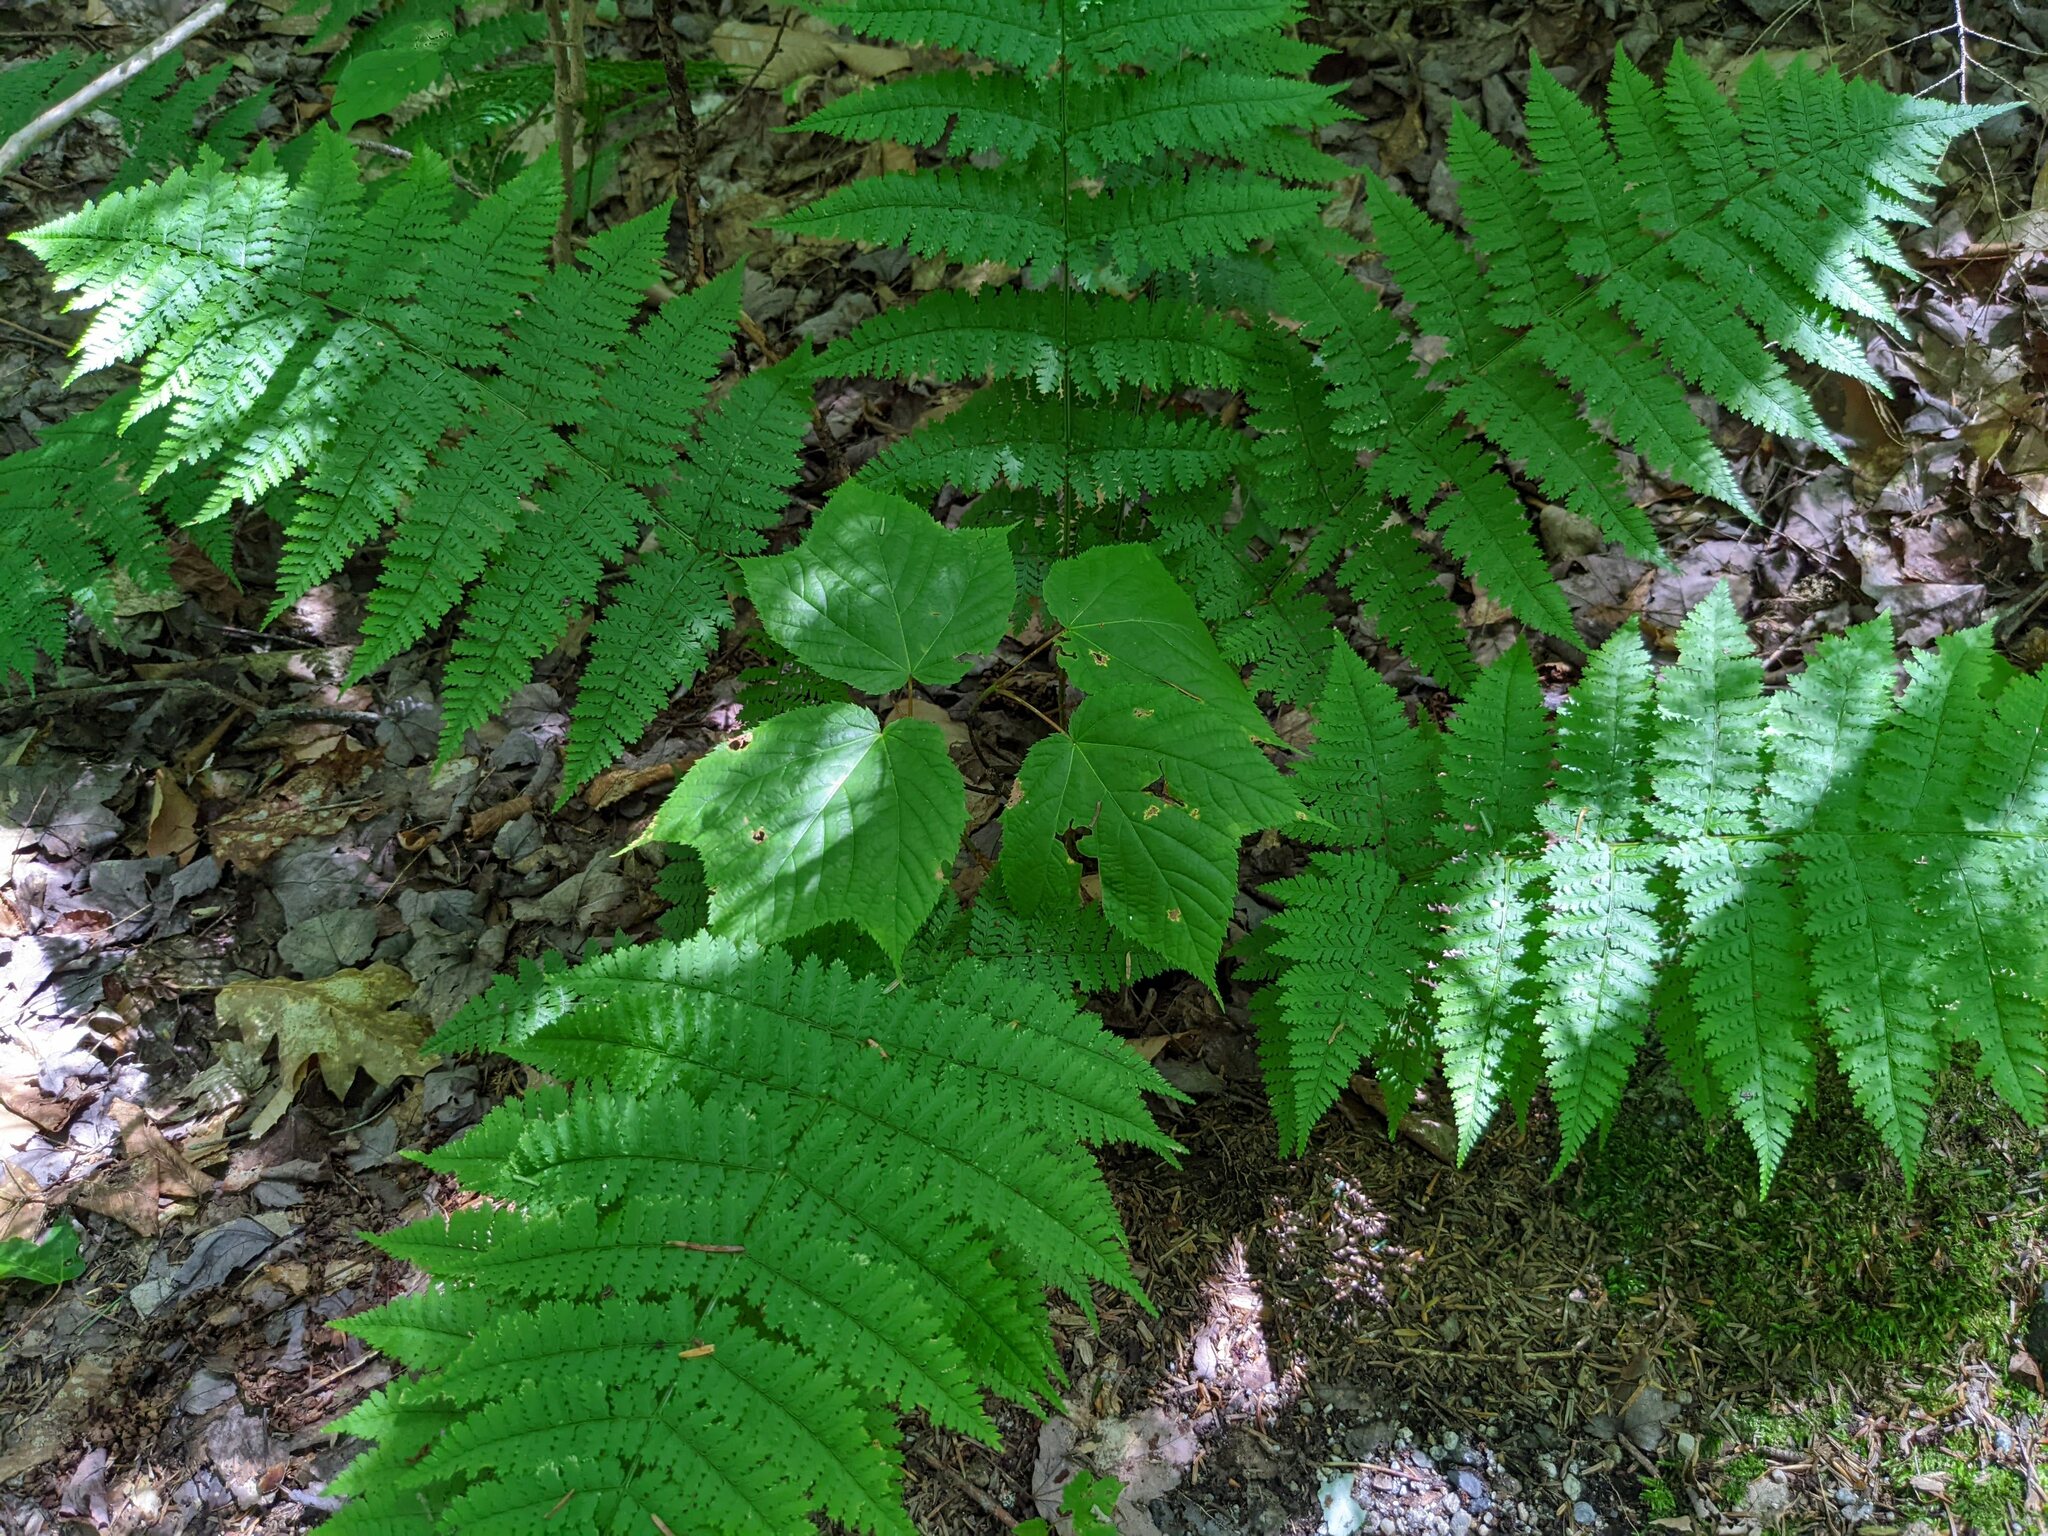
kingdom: Plantae
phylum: Tracheophyta
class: Magnoliopsida
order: Sapindales
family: Sapindaceae
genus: Acer
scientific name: Acer pensylvanicum
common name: Moosewood
